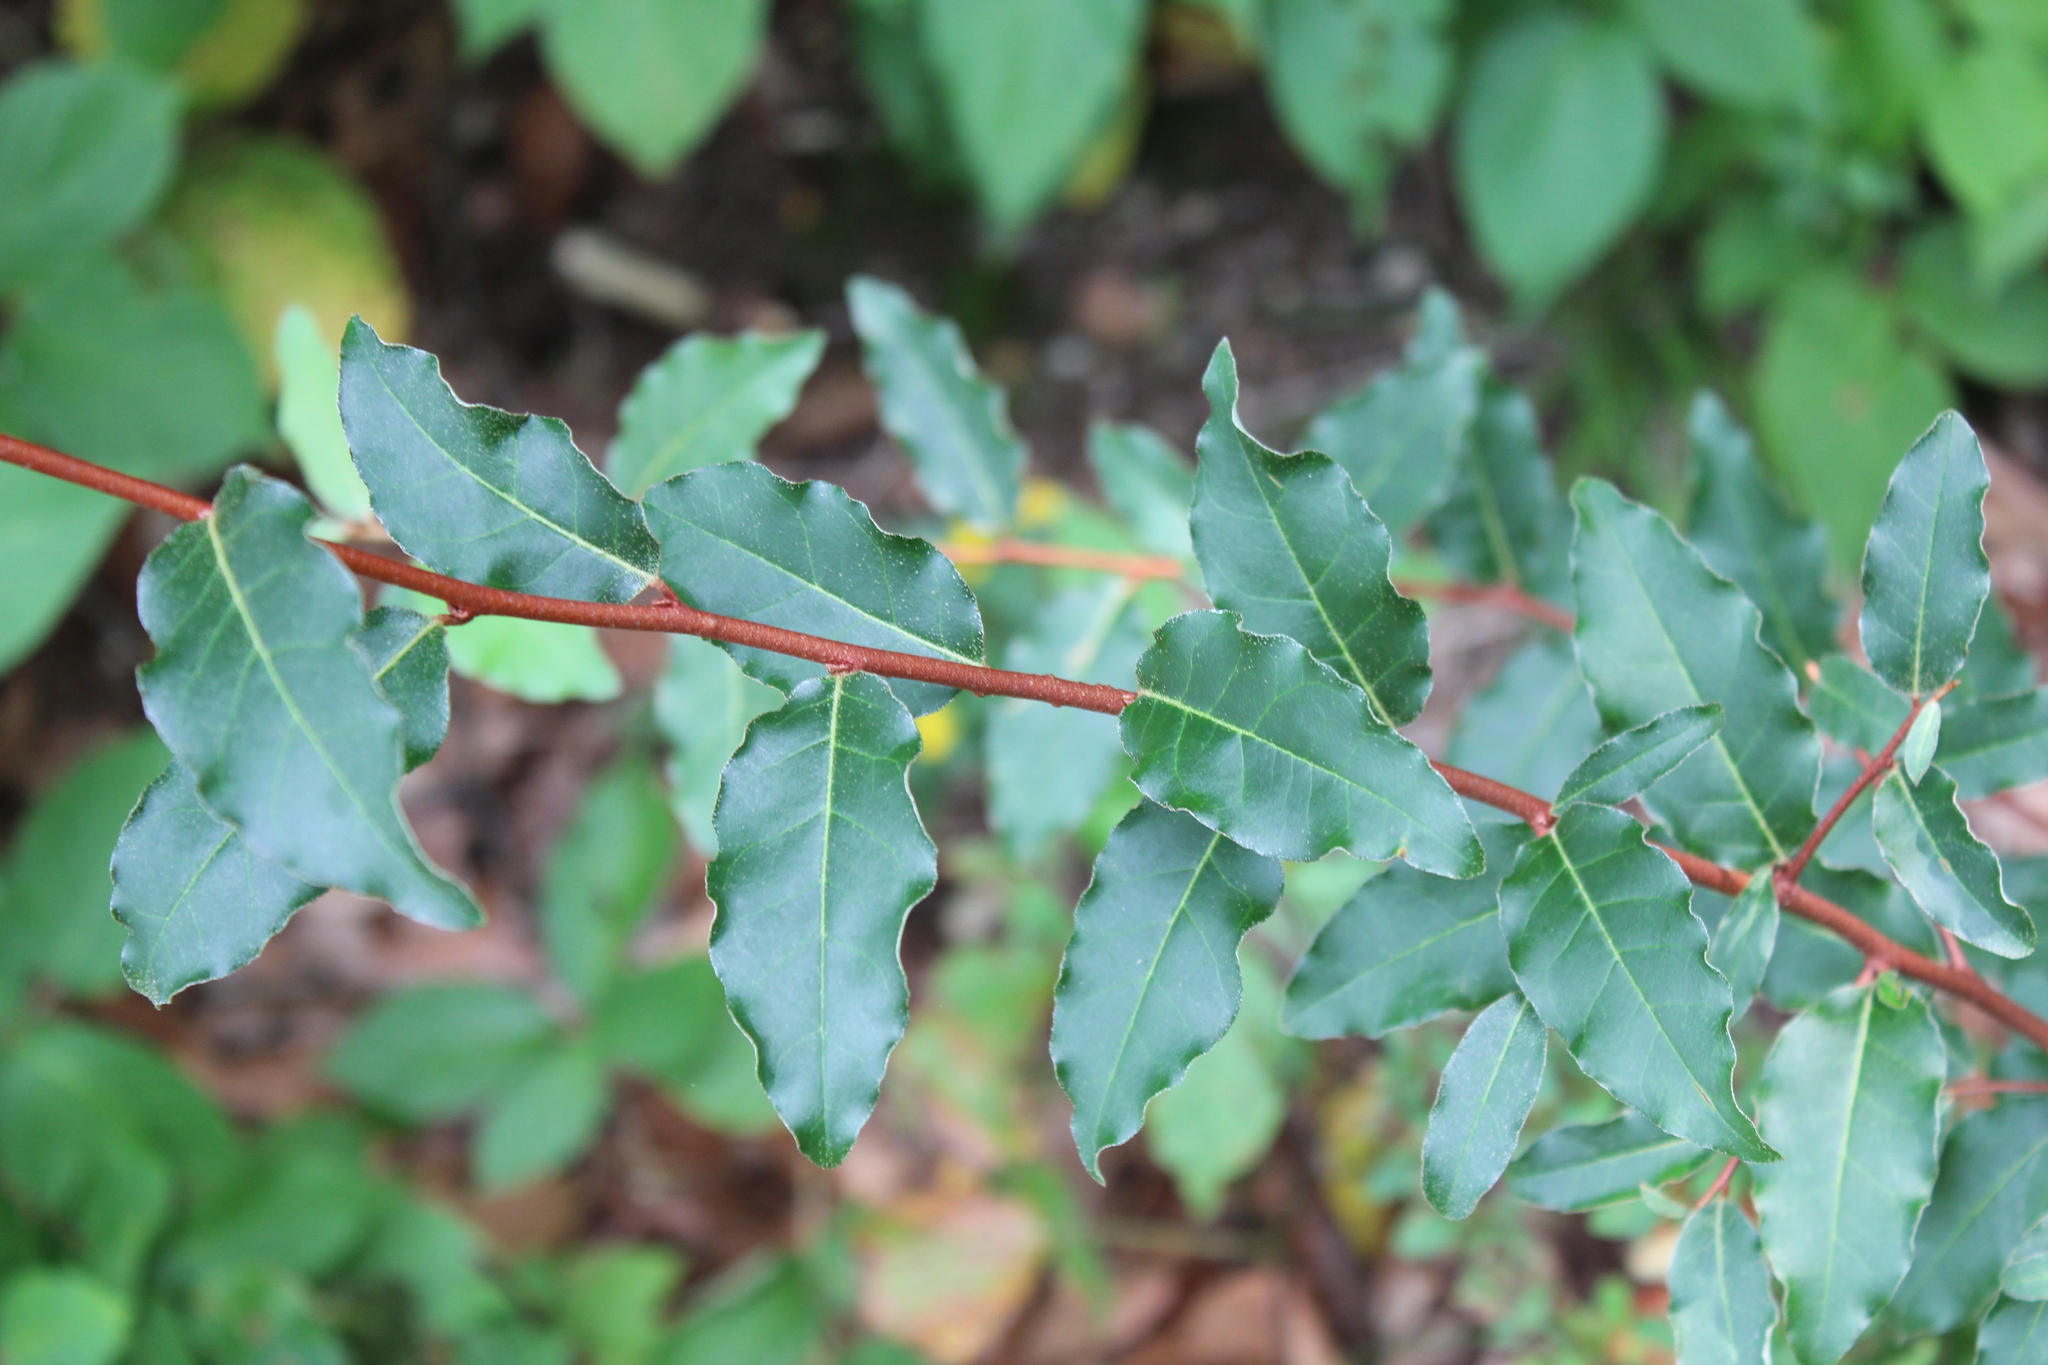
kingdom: Plantae
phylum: Tracheophyta
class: Magnoliopsida
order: Rosales
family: Elaeagnaceae
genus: Elaeagnus
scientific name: Elaeagnus umbellata
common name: Autumn olive
